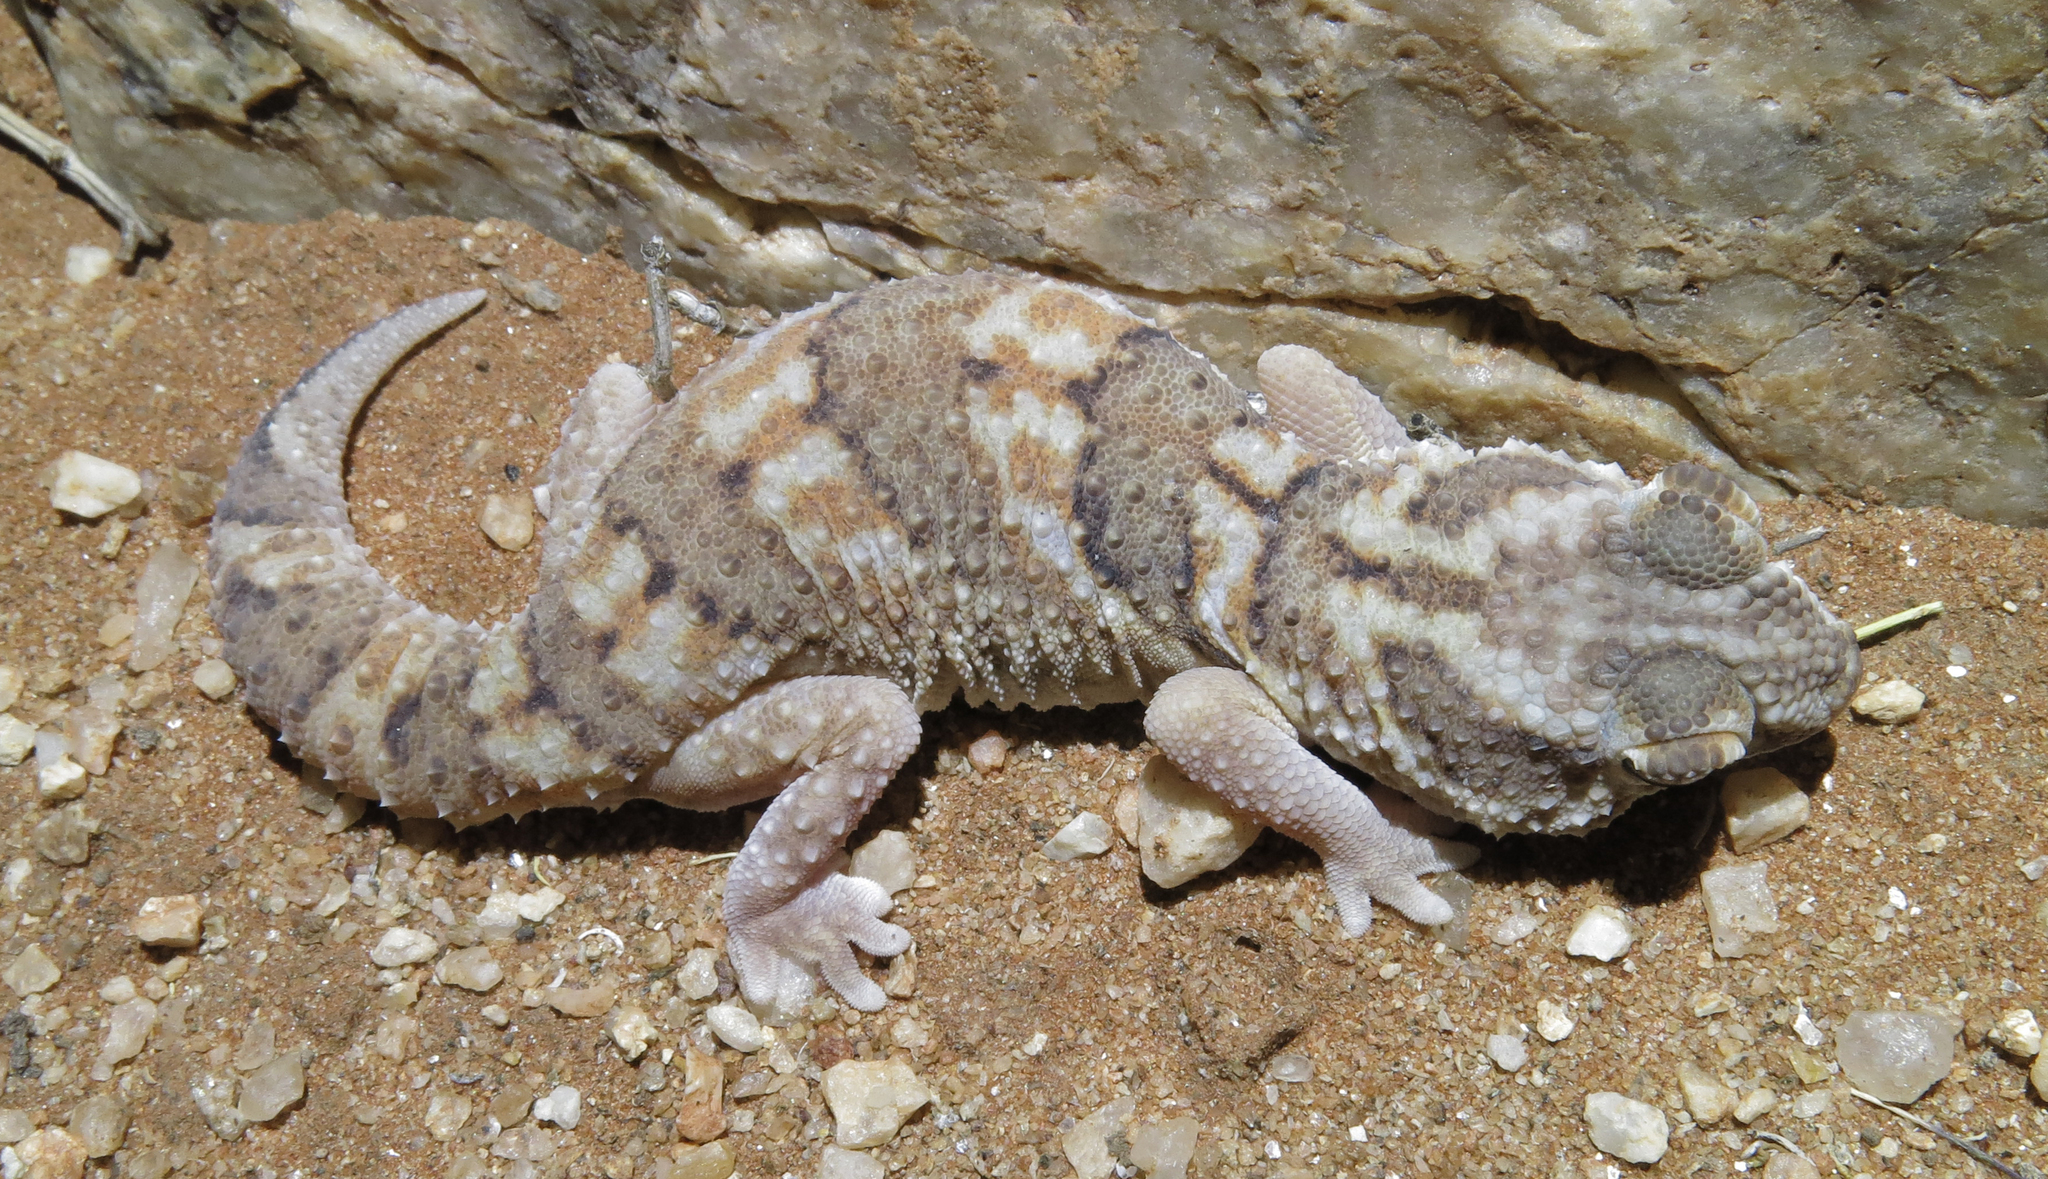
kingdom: Animalia
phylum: Chordata
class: Squamata
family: Gekkonidae
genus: Chondrodactylus
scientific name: Chondrodactylus angulifer
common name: Common giant ground gecko
